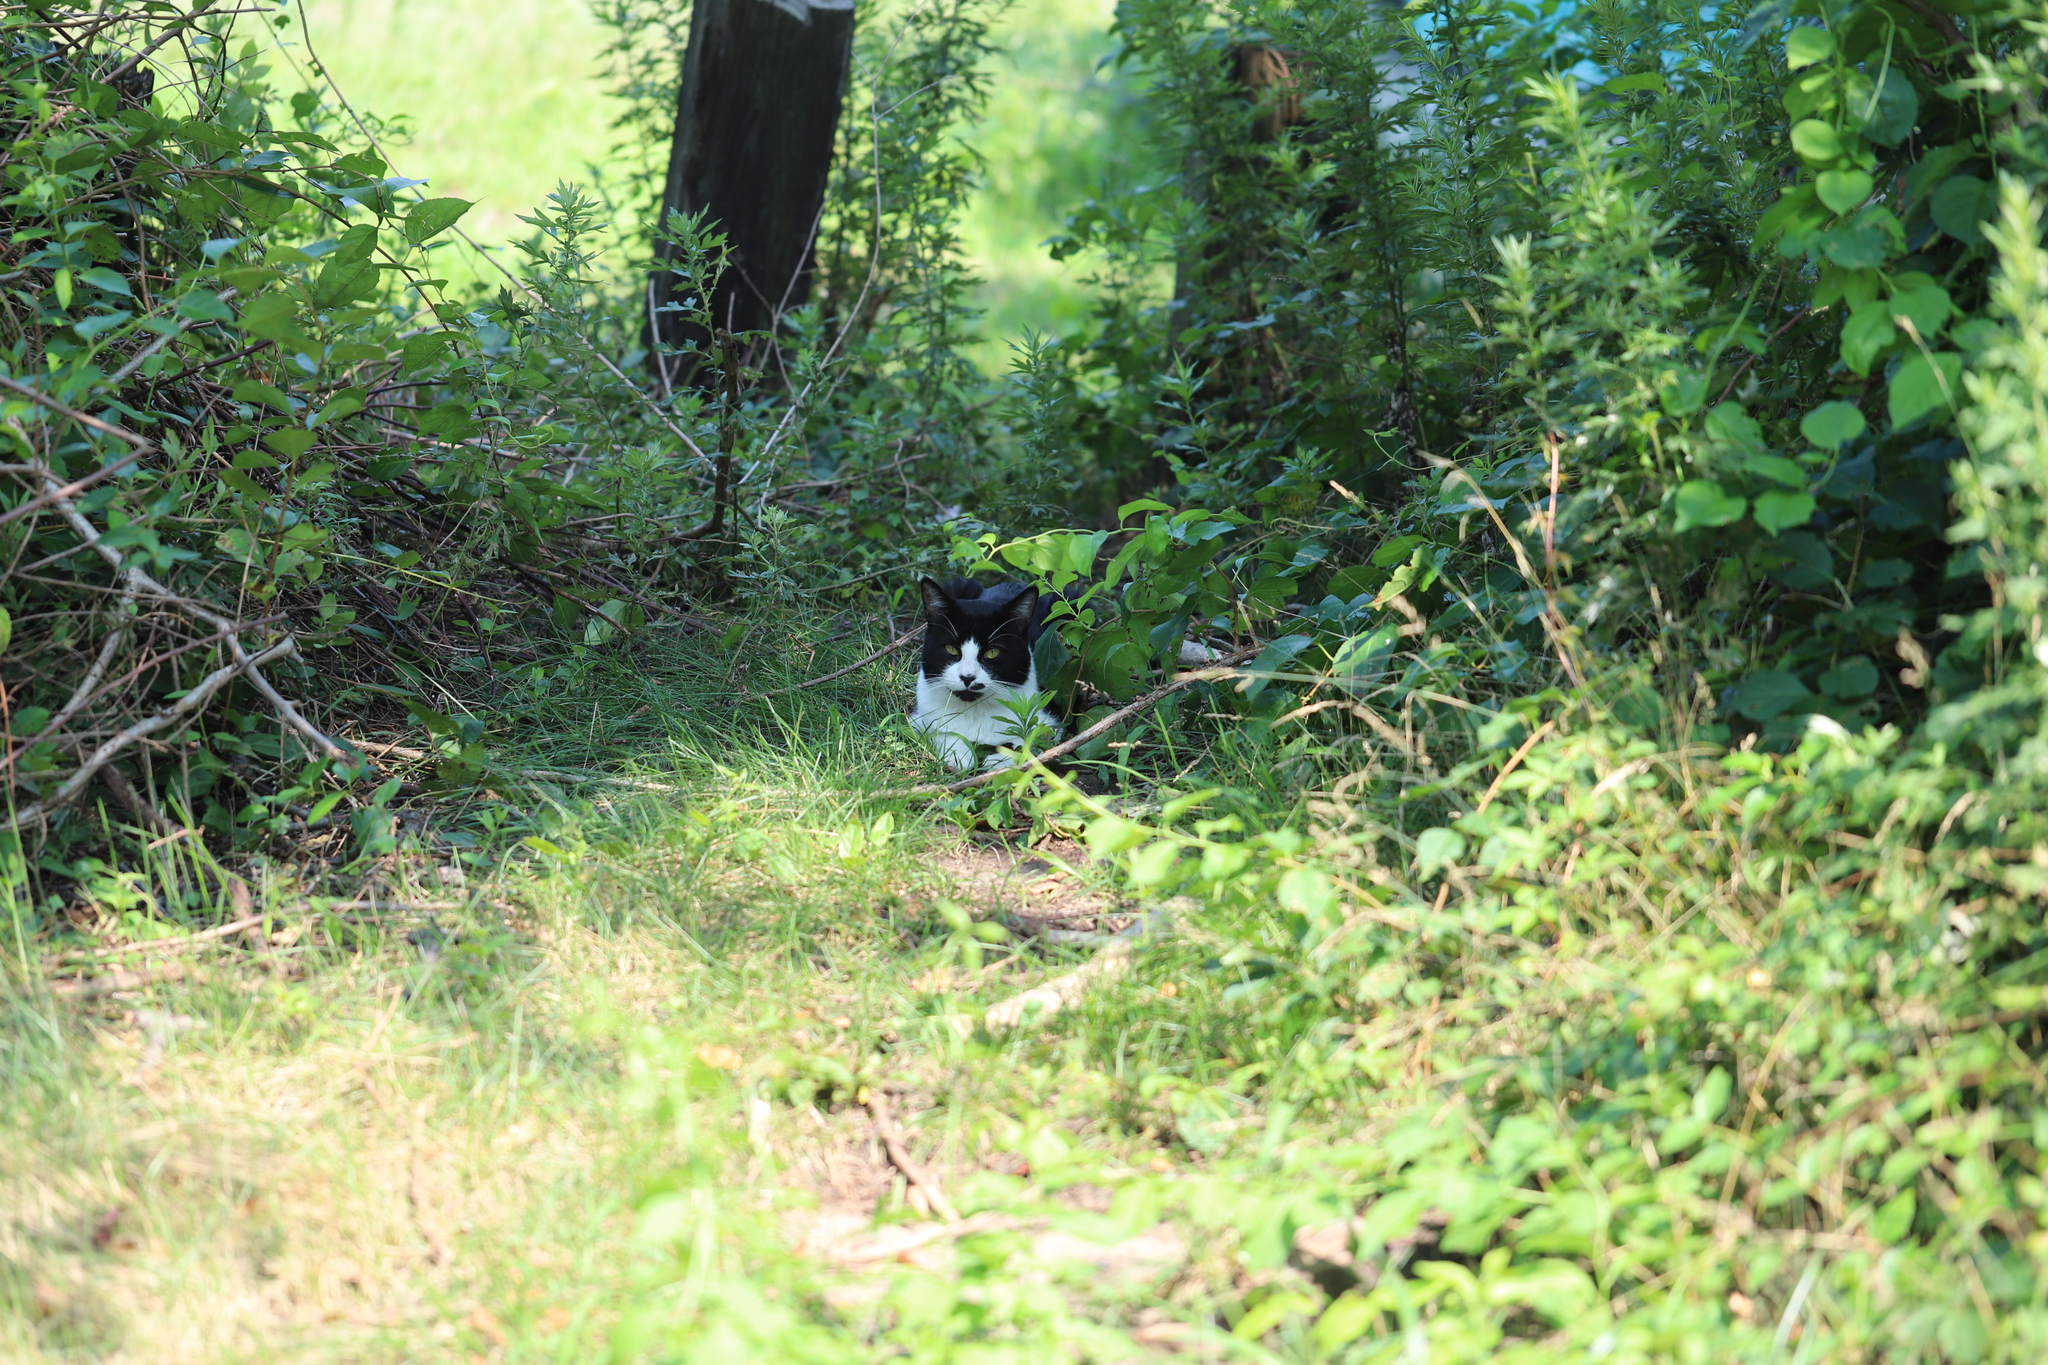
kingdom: Animalia
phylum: Chordata
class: Mammalia
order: Carnivora
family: Felidae
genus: Felis
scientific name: Felis catus
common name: Domestic cat
